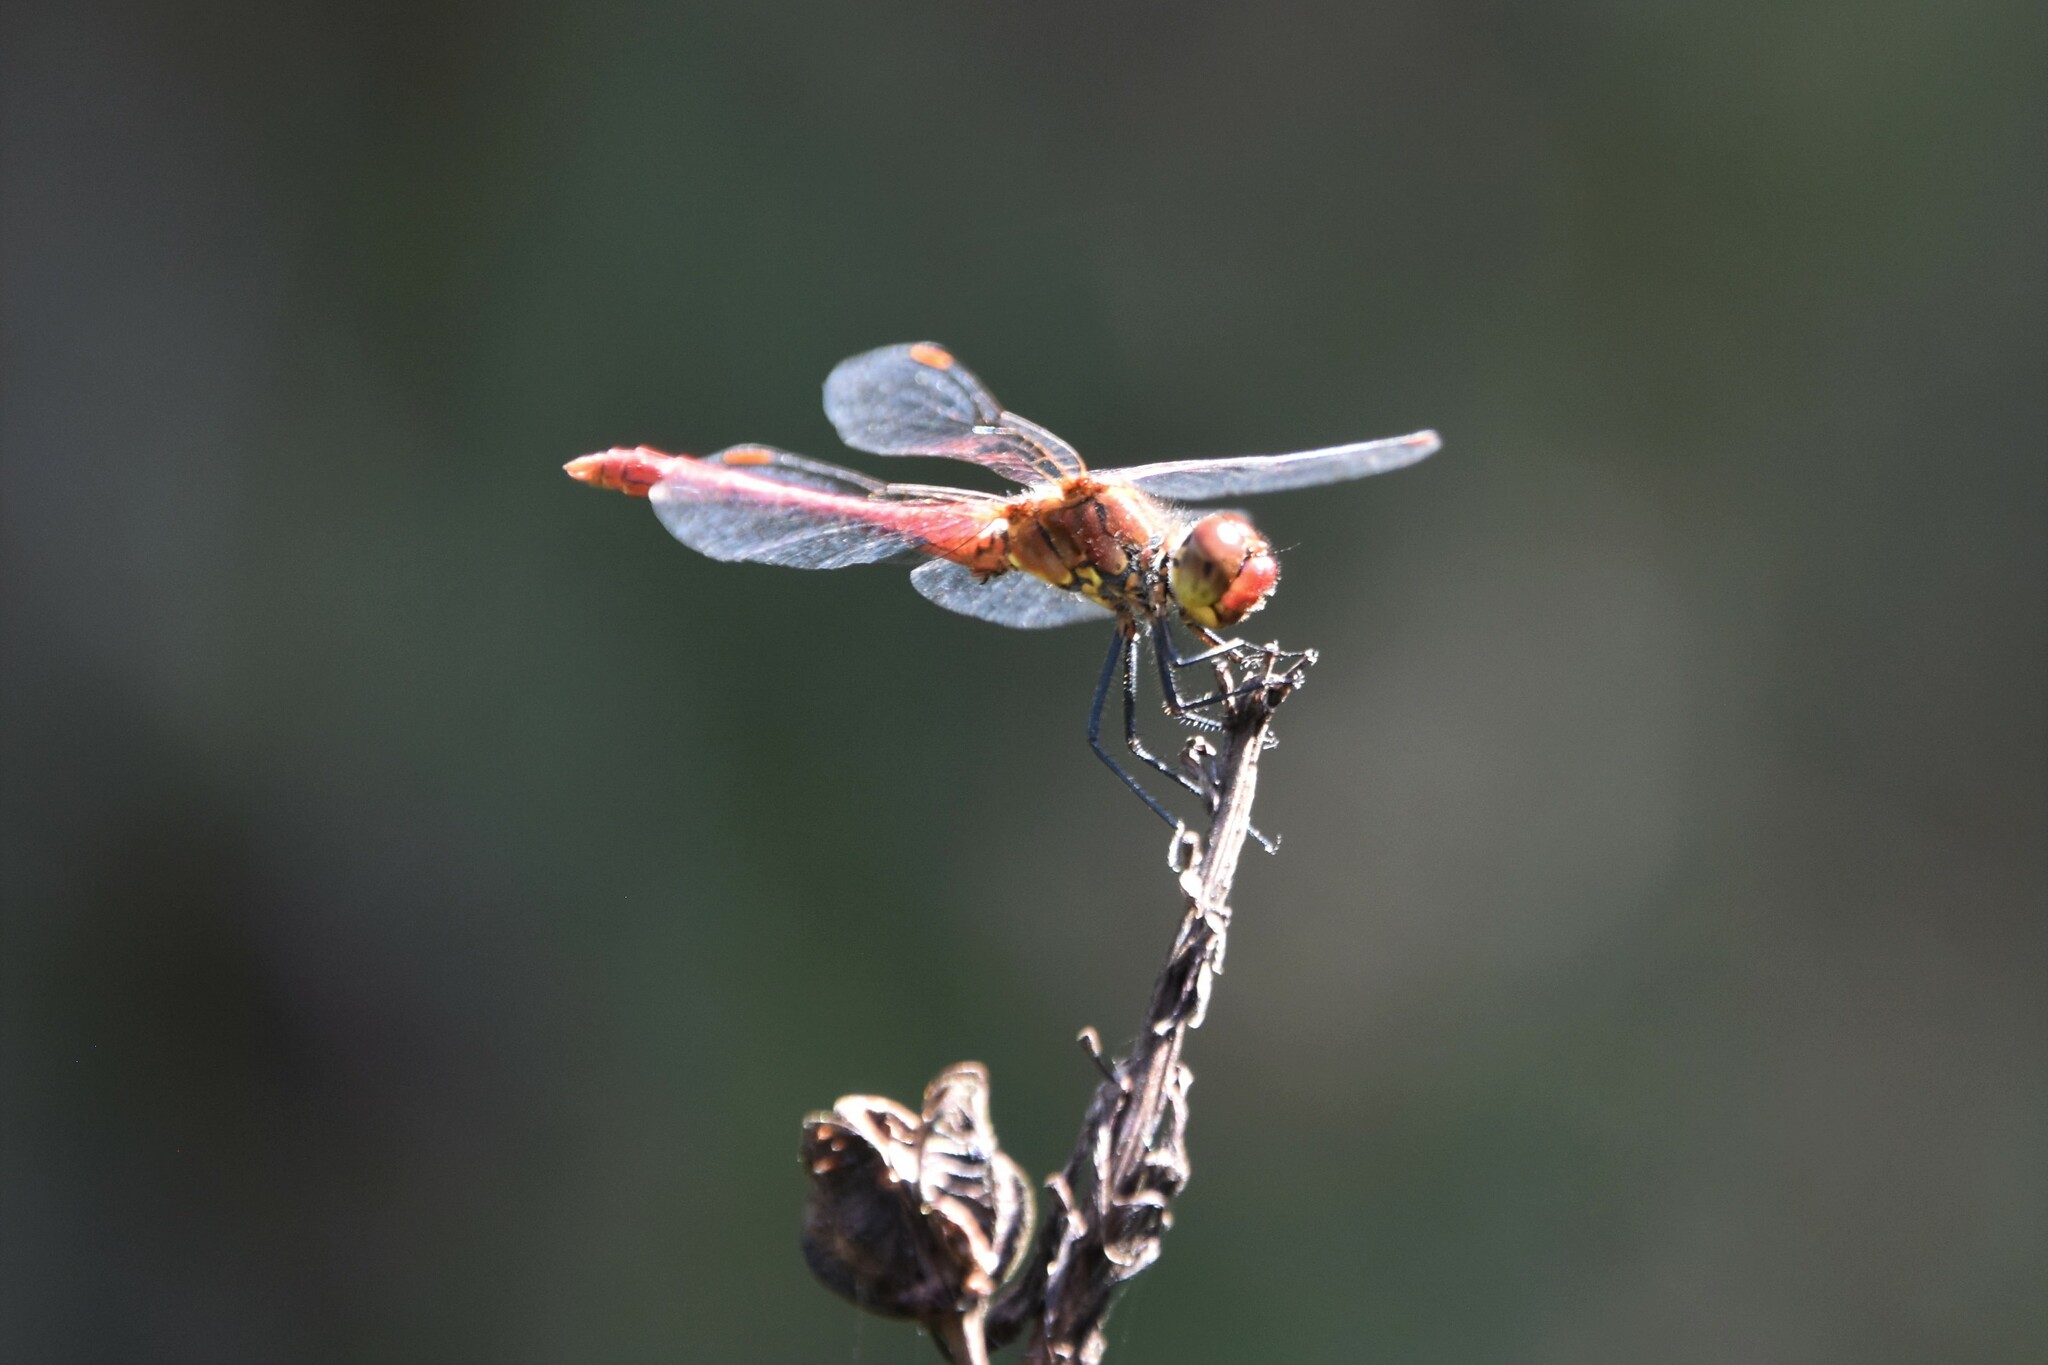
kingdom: Animalia
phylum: Arthropoda
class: Insecta
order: Odonata
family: Libellulidae
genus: Sympetrum
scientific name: Sympetrum sanguineum
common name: Ruddy darter
